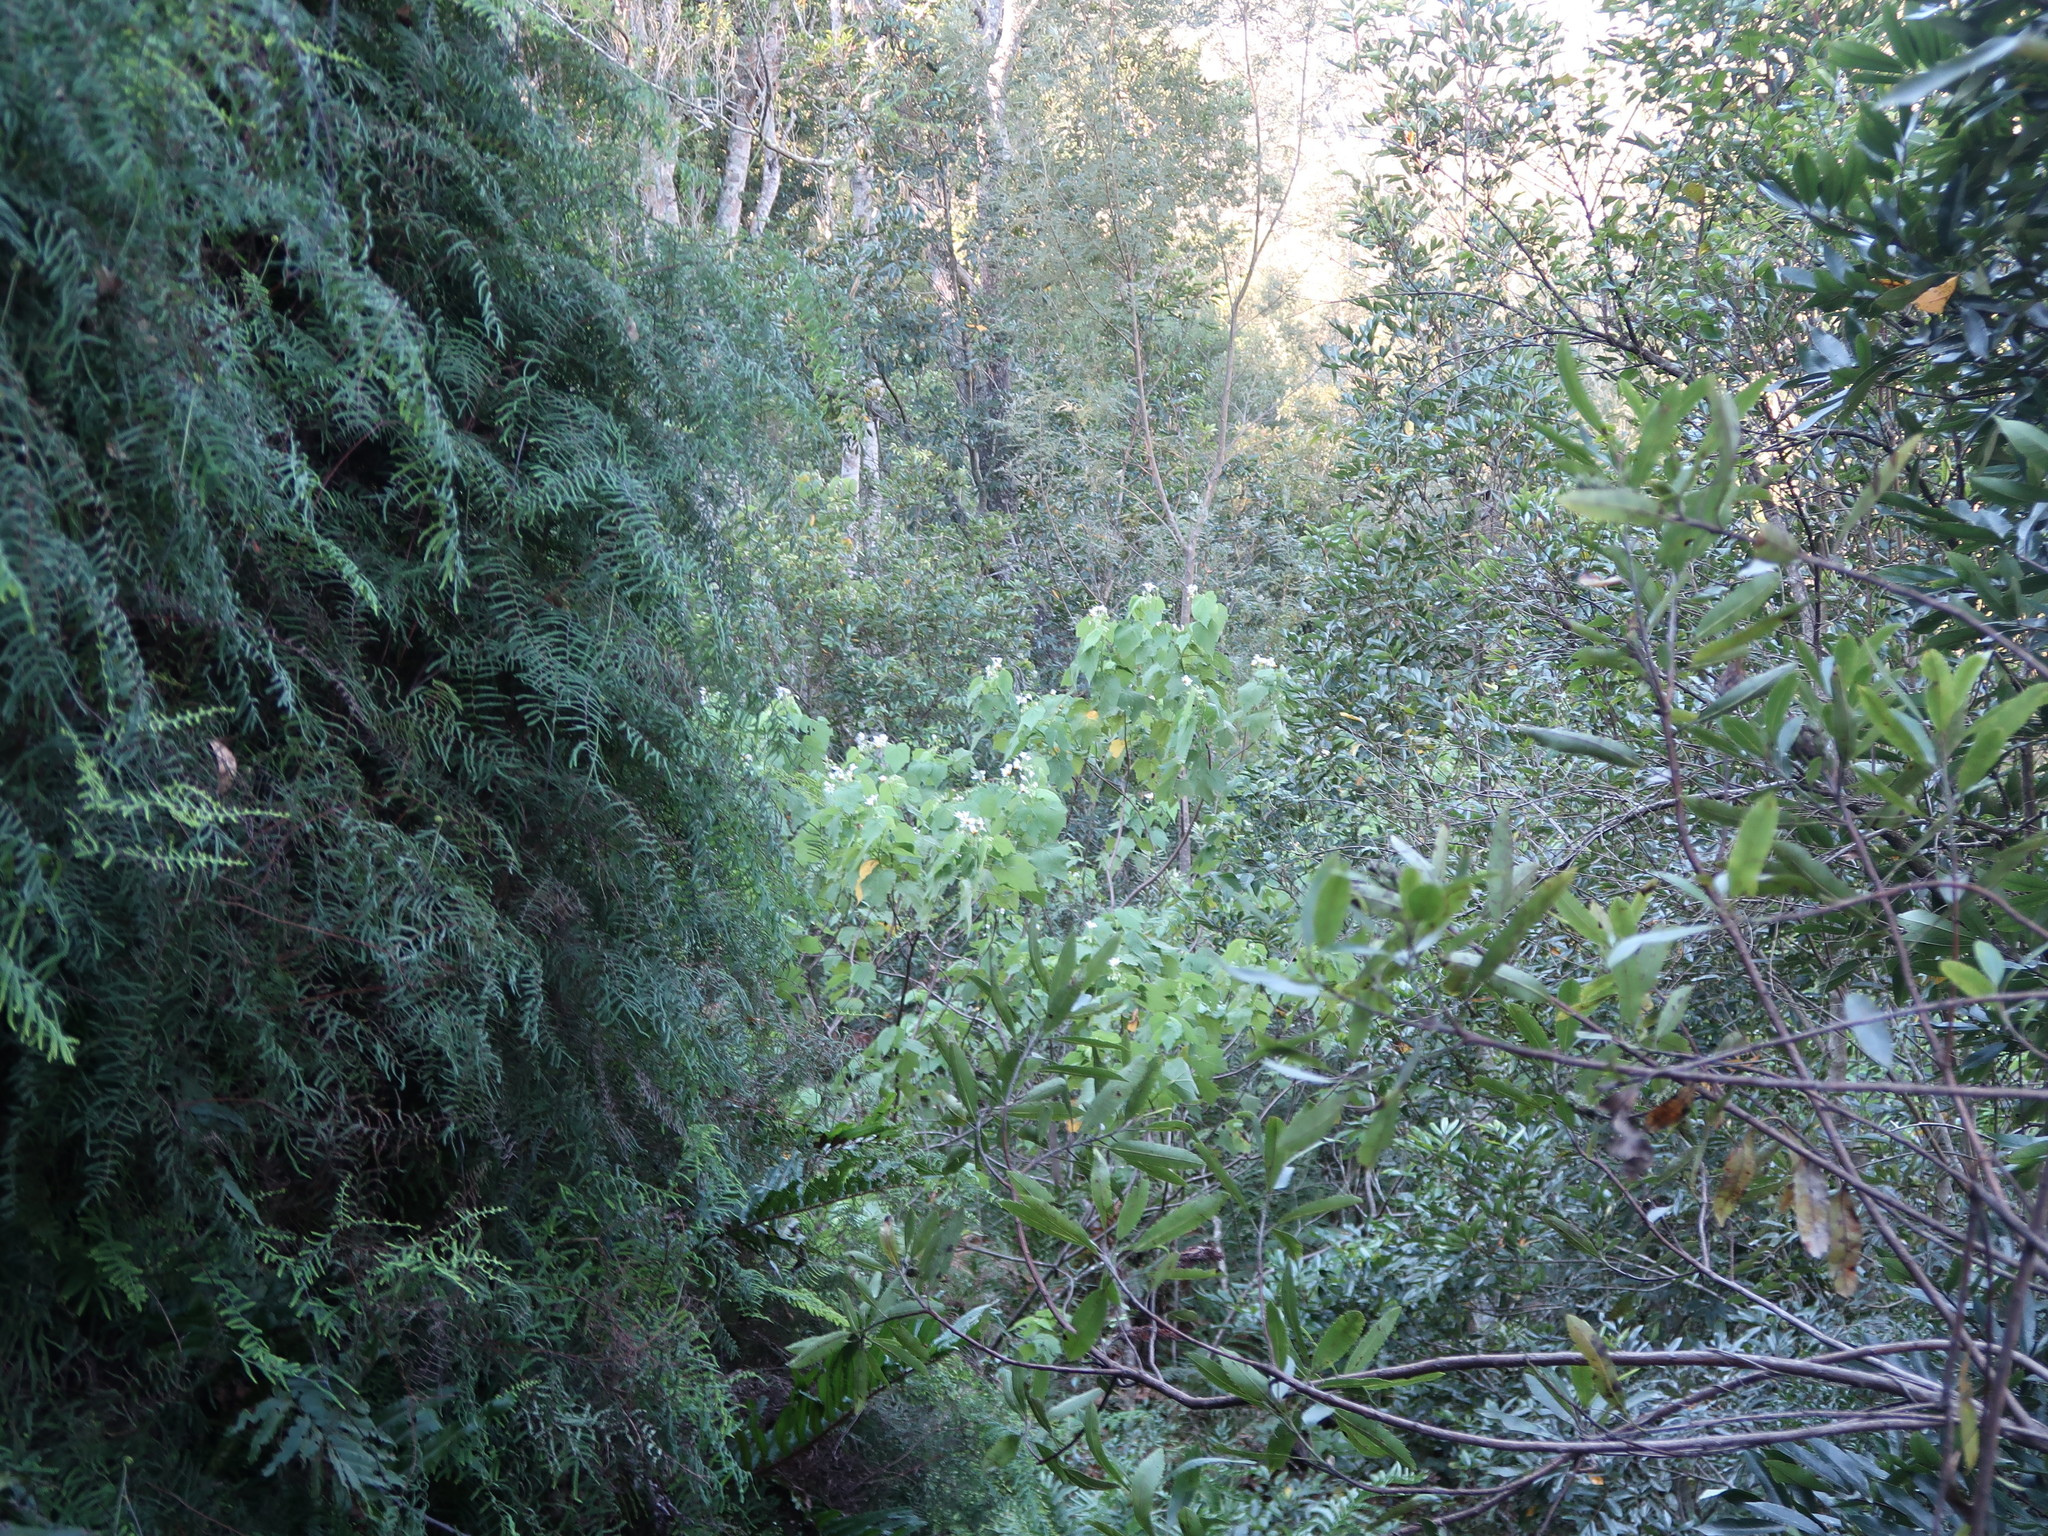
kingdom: Plantae
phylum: Tracheophyta
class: Polypodiopsida
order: Gleicheniales
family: Gleicheniaceae
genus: Gleichenia
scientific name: Gleichenia polypodioides
